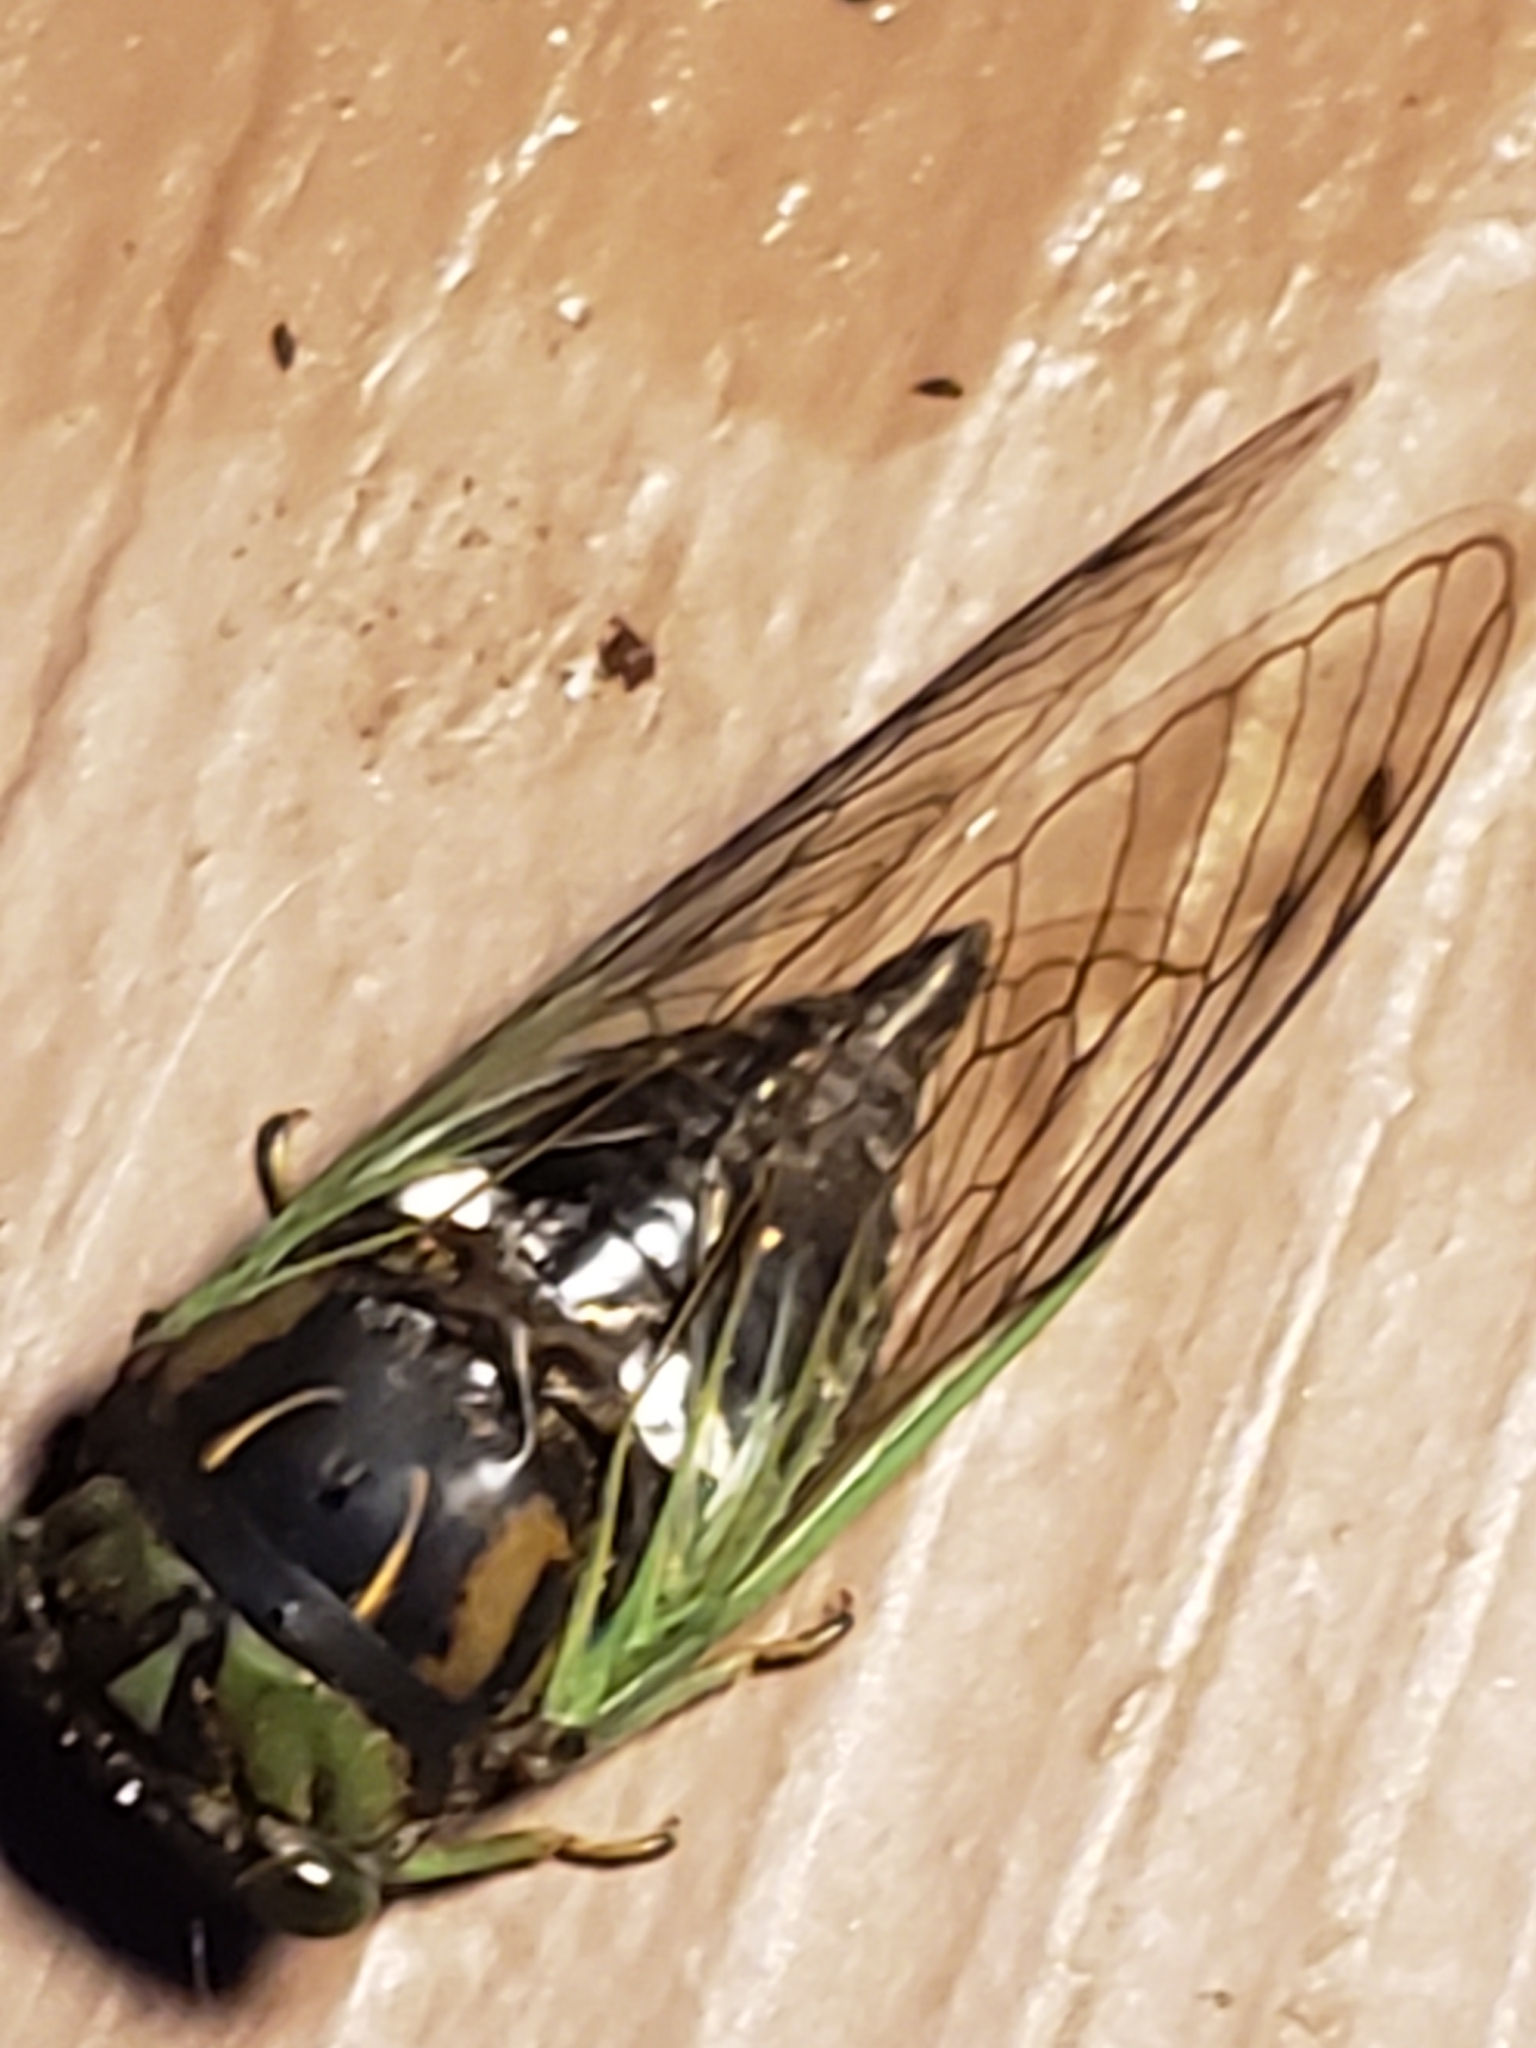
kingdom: Animalia
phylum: Arthropoda
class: Insecta
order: Hemiptera
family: Cicadidae
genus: Neotibicen
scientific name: Neotibicen tibicen
